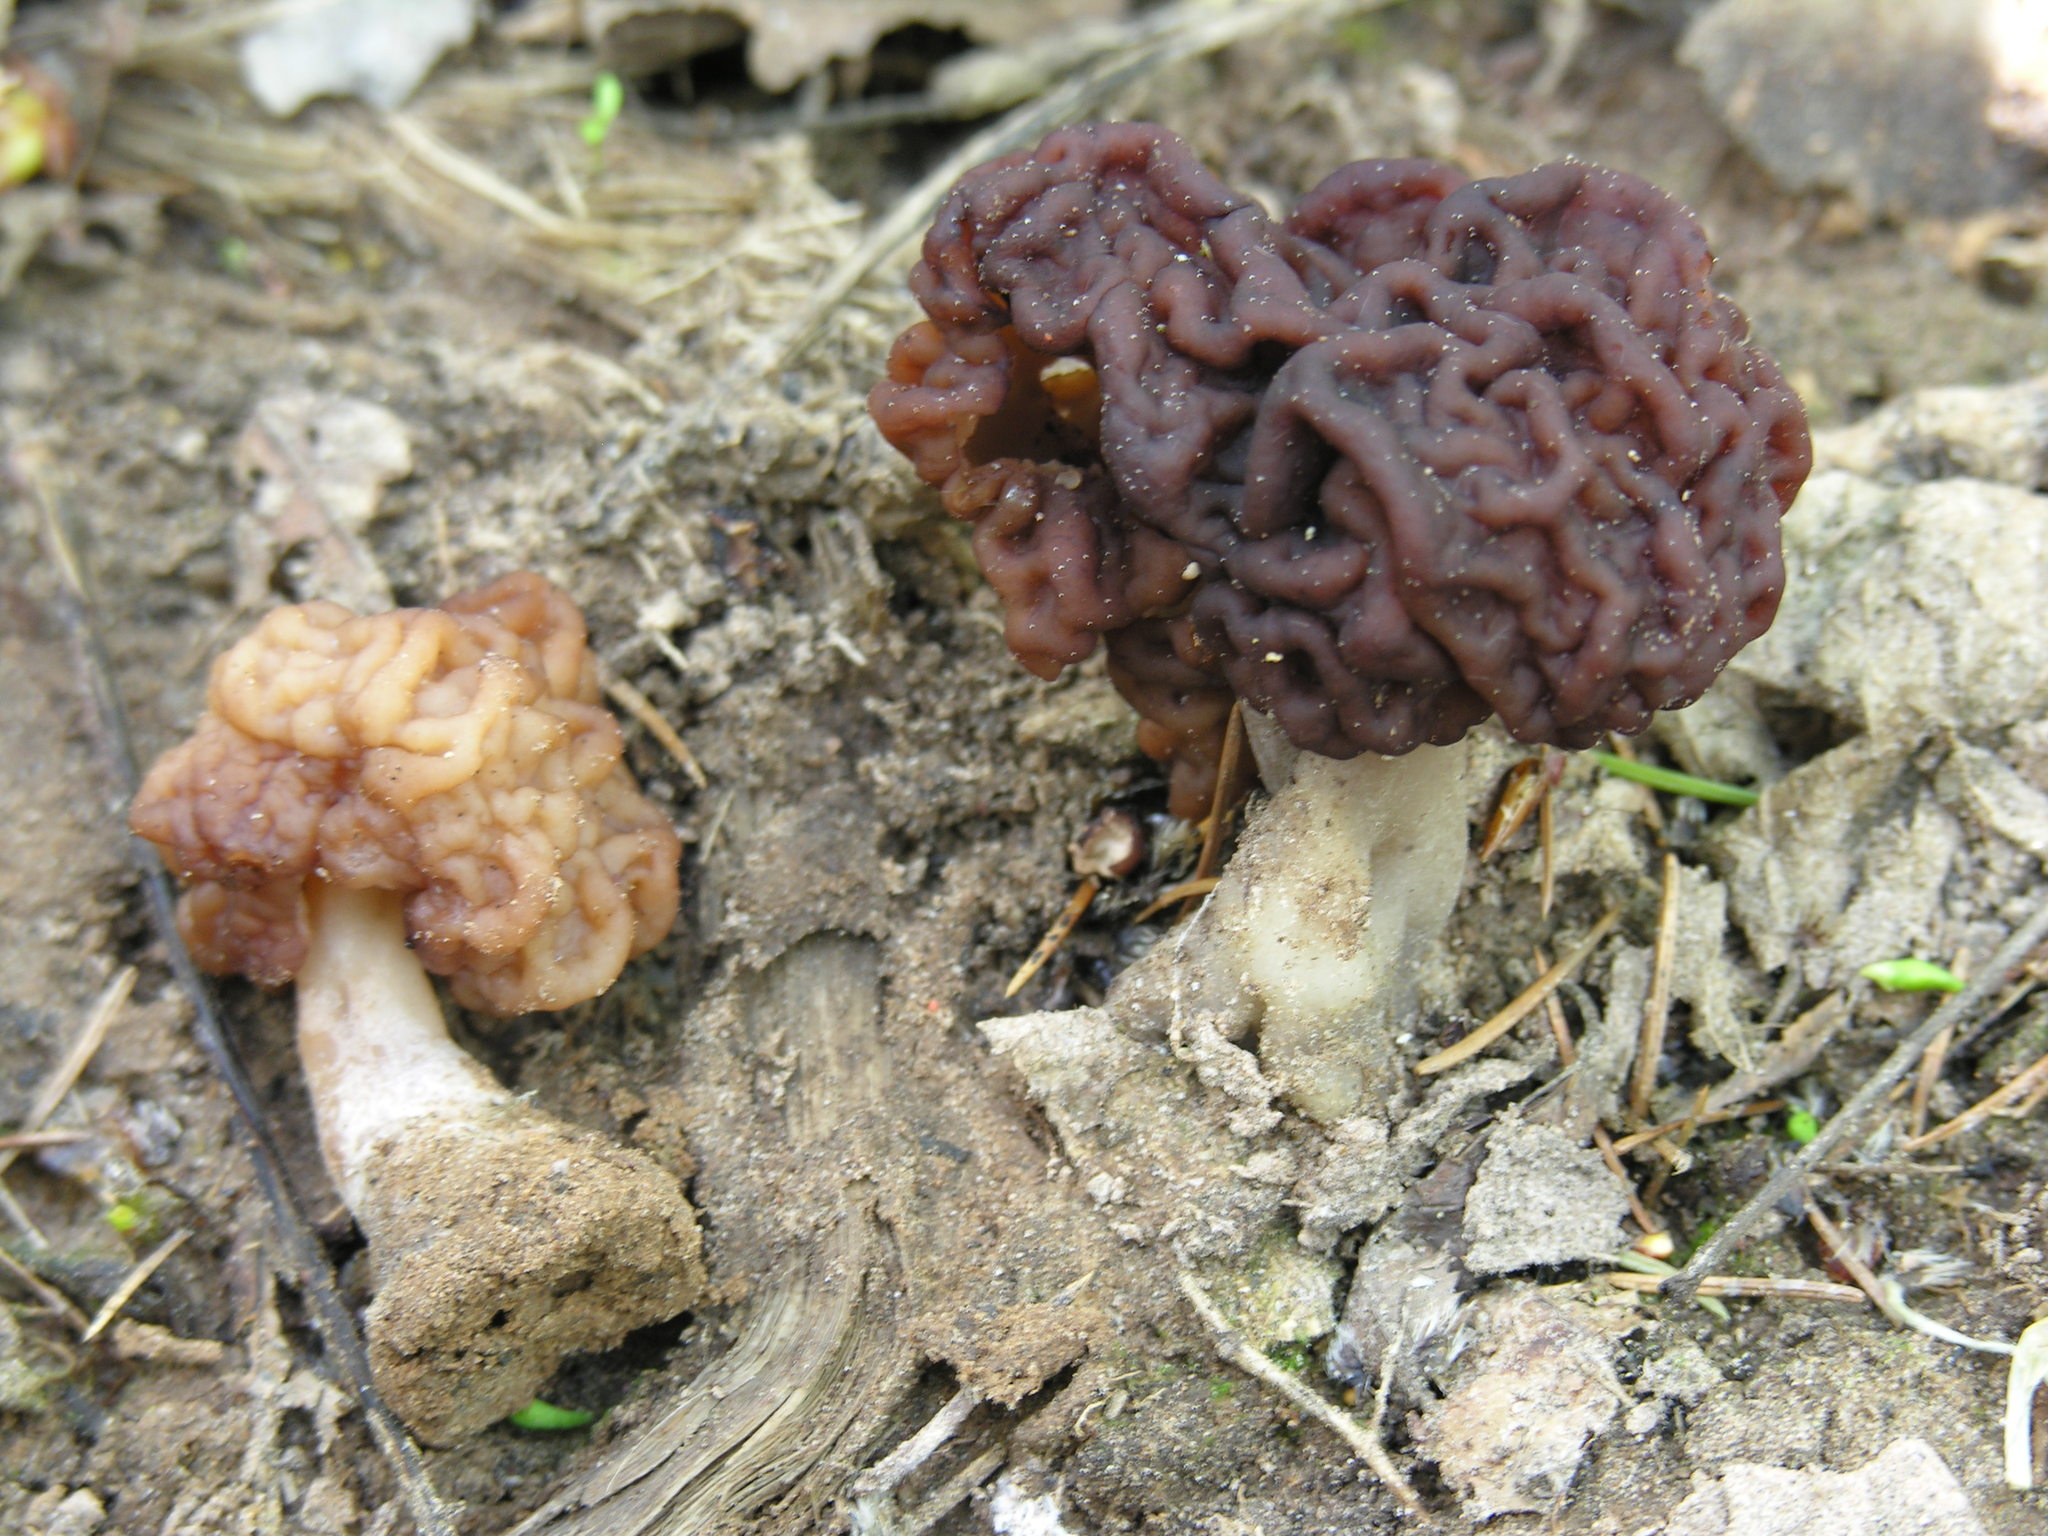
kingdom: Fungi
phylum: Ascomycota
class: Pezizomycetes
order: Pezizales
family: Discinaceae
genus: Gyromitra
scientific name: Gyromitra esculenta
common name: False morel
